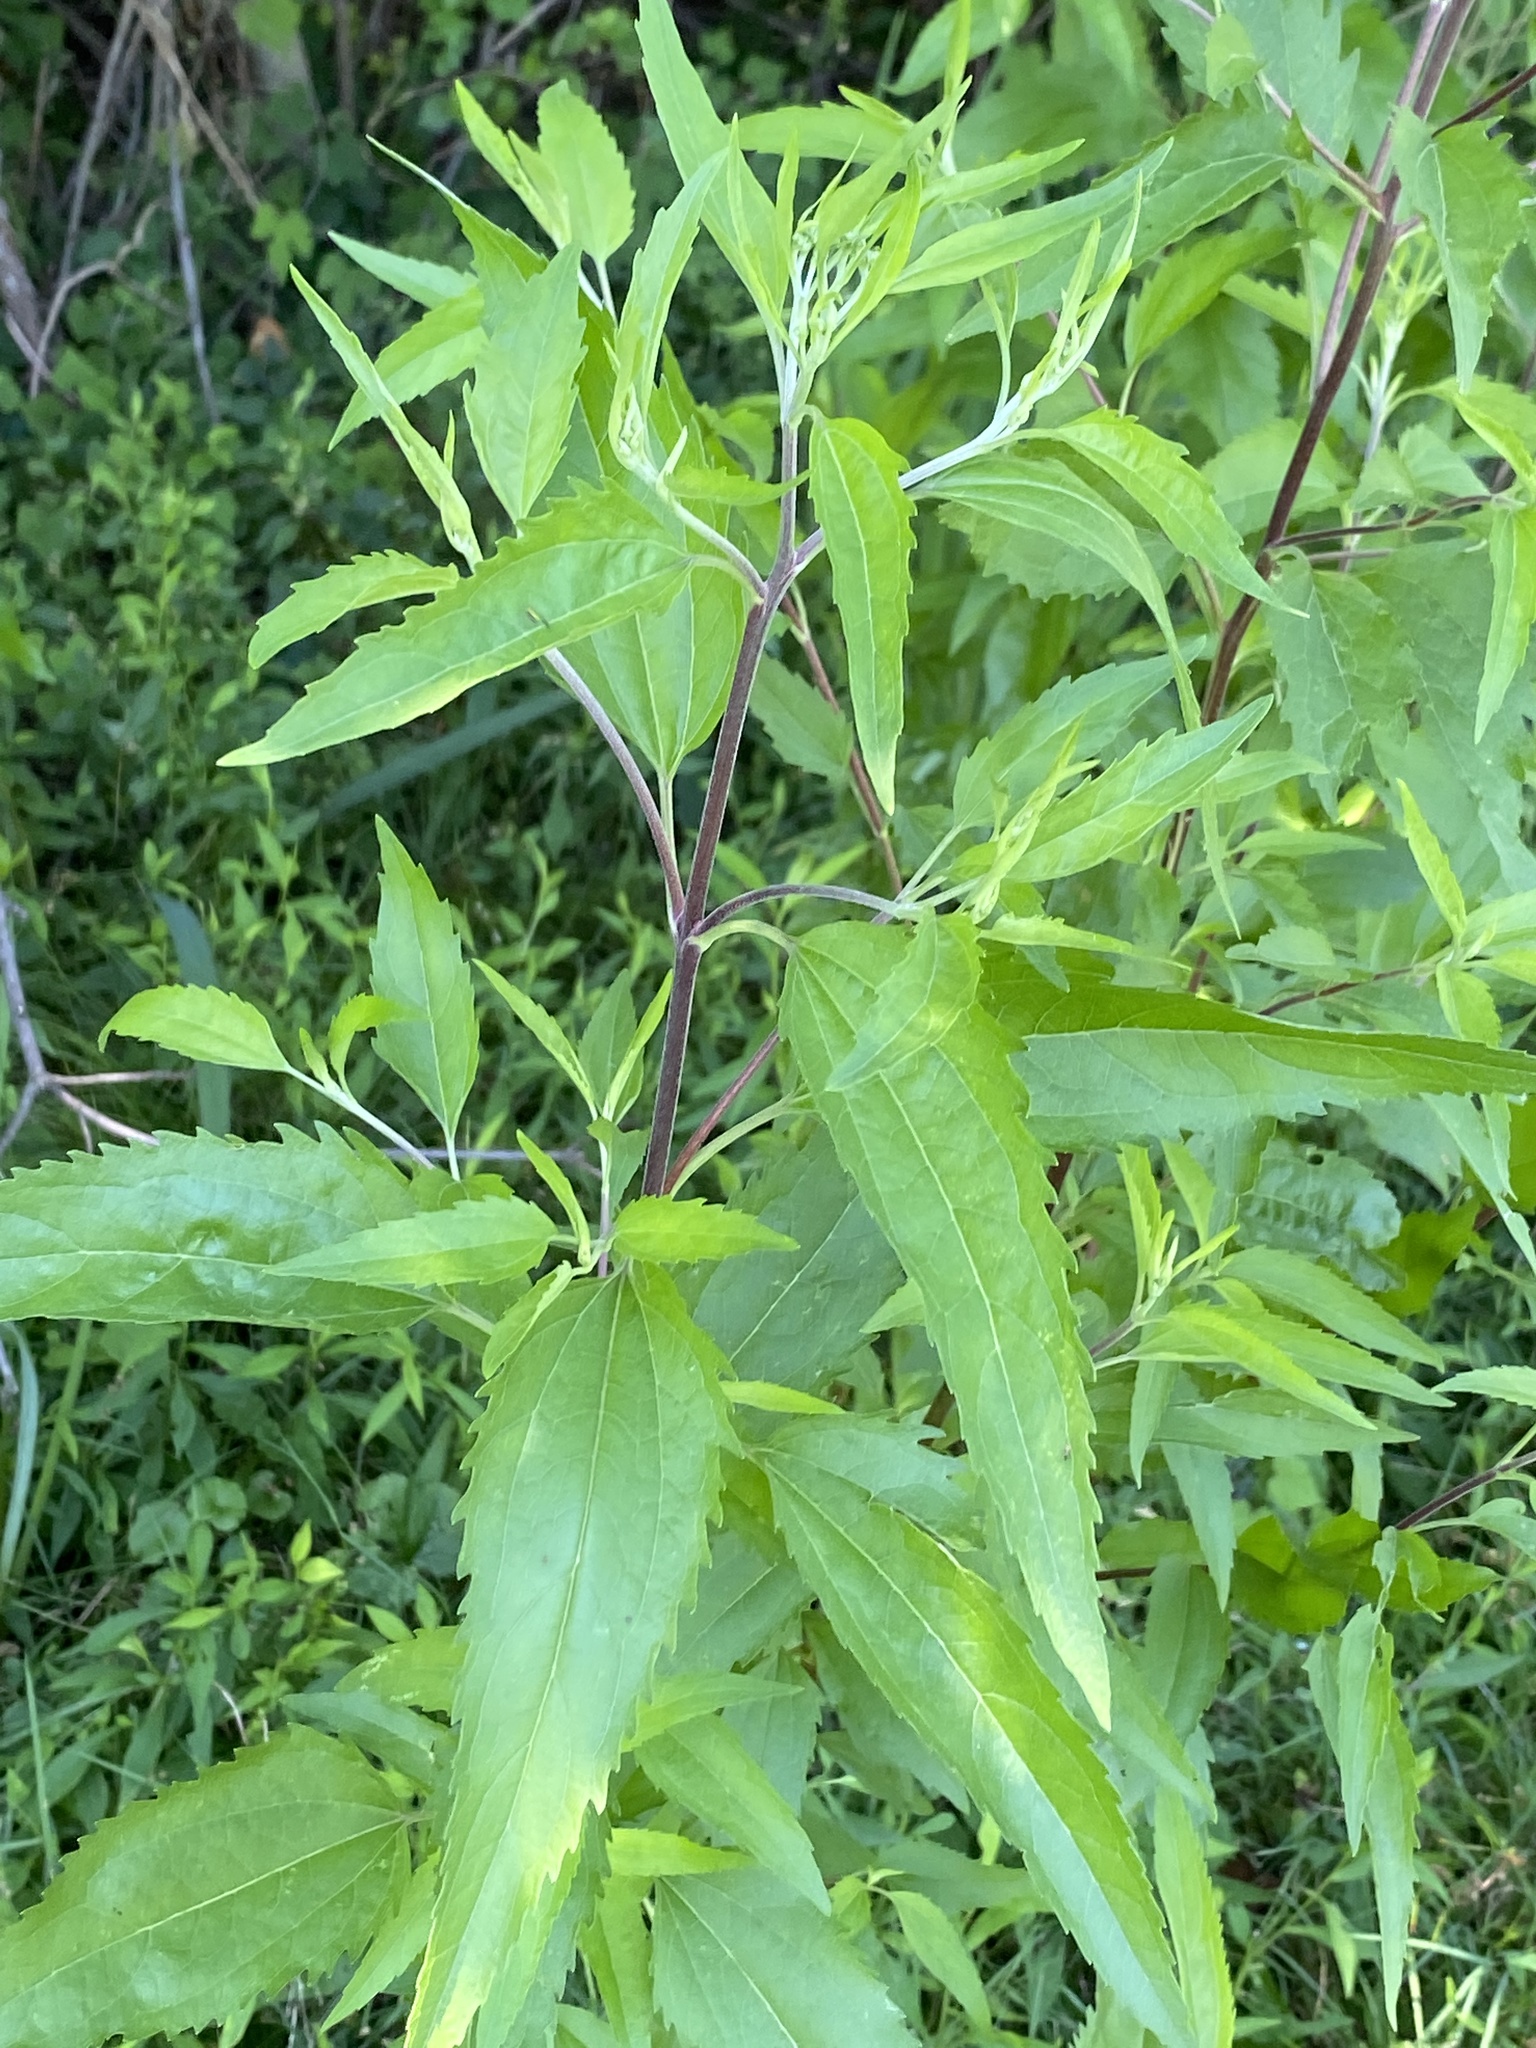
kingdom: Plantae
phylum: Tracheophyta
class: Magnoliopsida
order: Asterales
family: Asteraceae
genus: Eupatorium
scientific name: Eupatorium serotinum
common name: Late boneset
